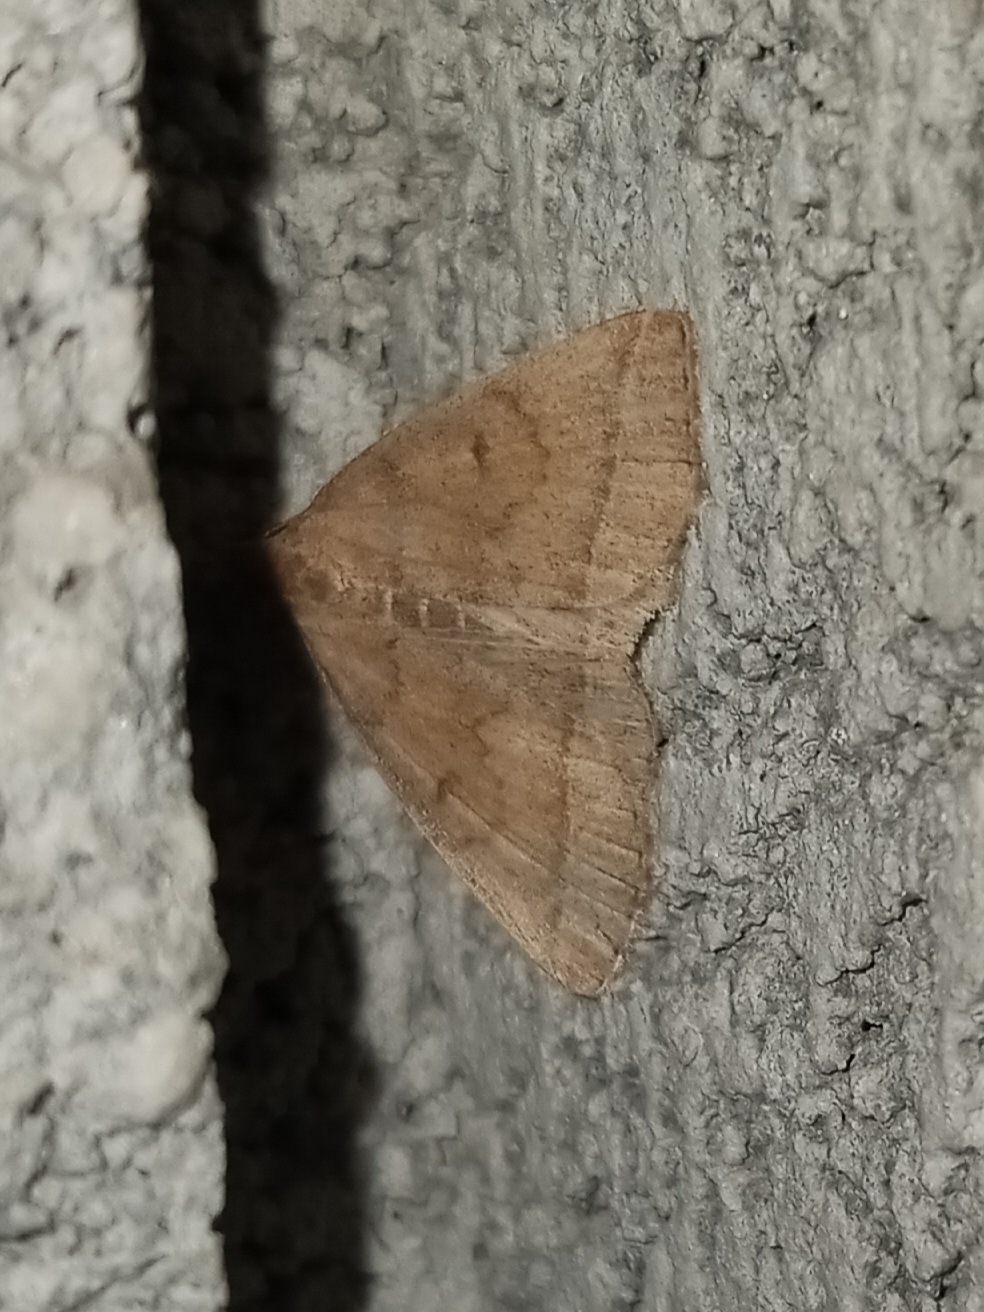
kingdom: Animalia
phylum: Arthropoda
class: Insecta
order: Lepidoptera
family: Erebidae
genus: Zanclognatha
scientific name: Zanclognatha jacchusalis
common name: Yellowish zanclognatha
